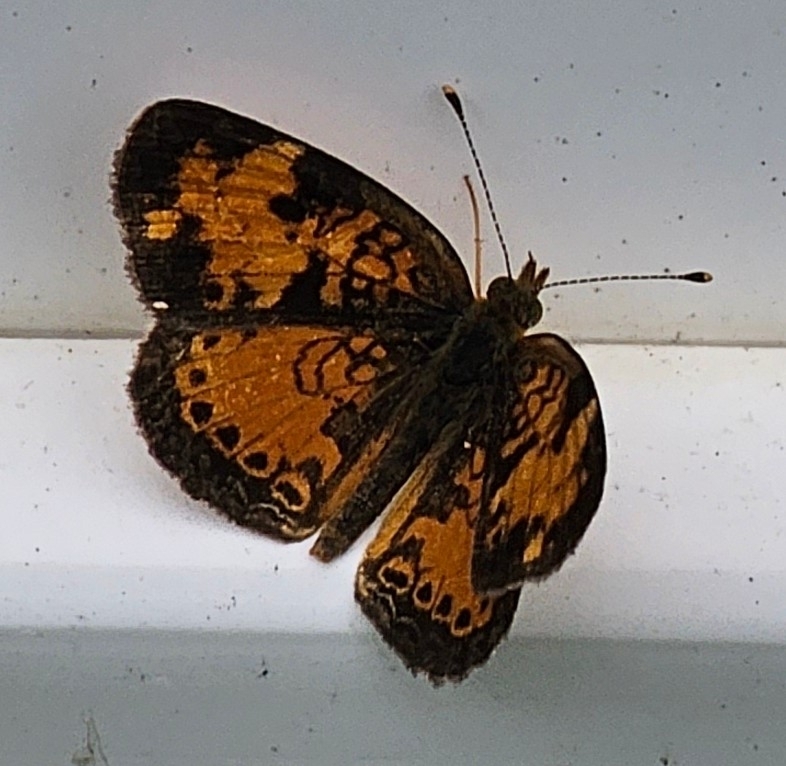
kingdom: Animalia
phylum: Arthropoda
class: Insecta
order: Lepidoptera
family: Nymphalidae
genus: Phyciodes
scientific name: Phyciodes tharos
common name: Pearl crescent
